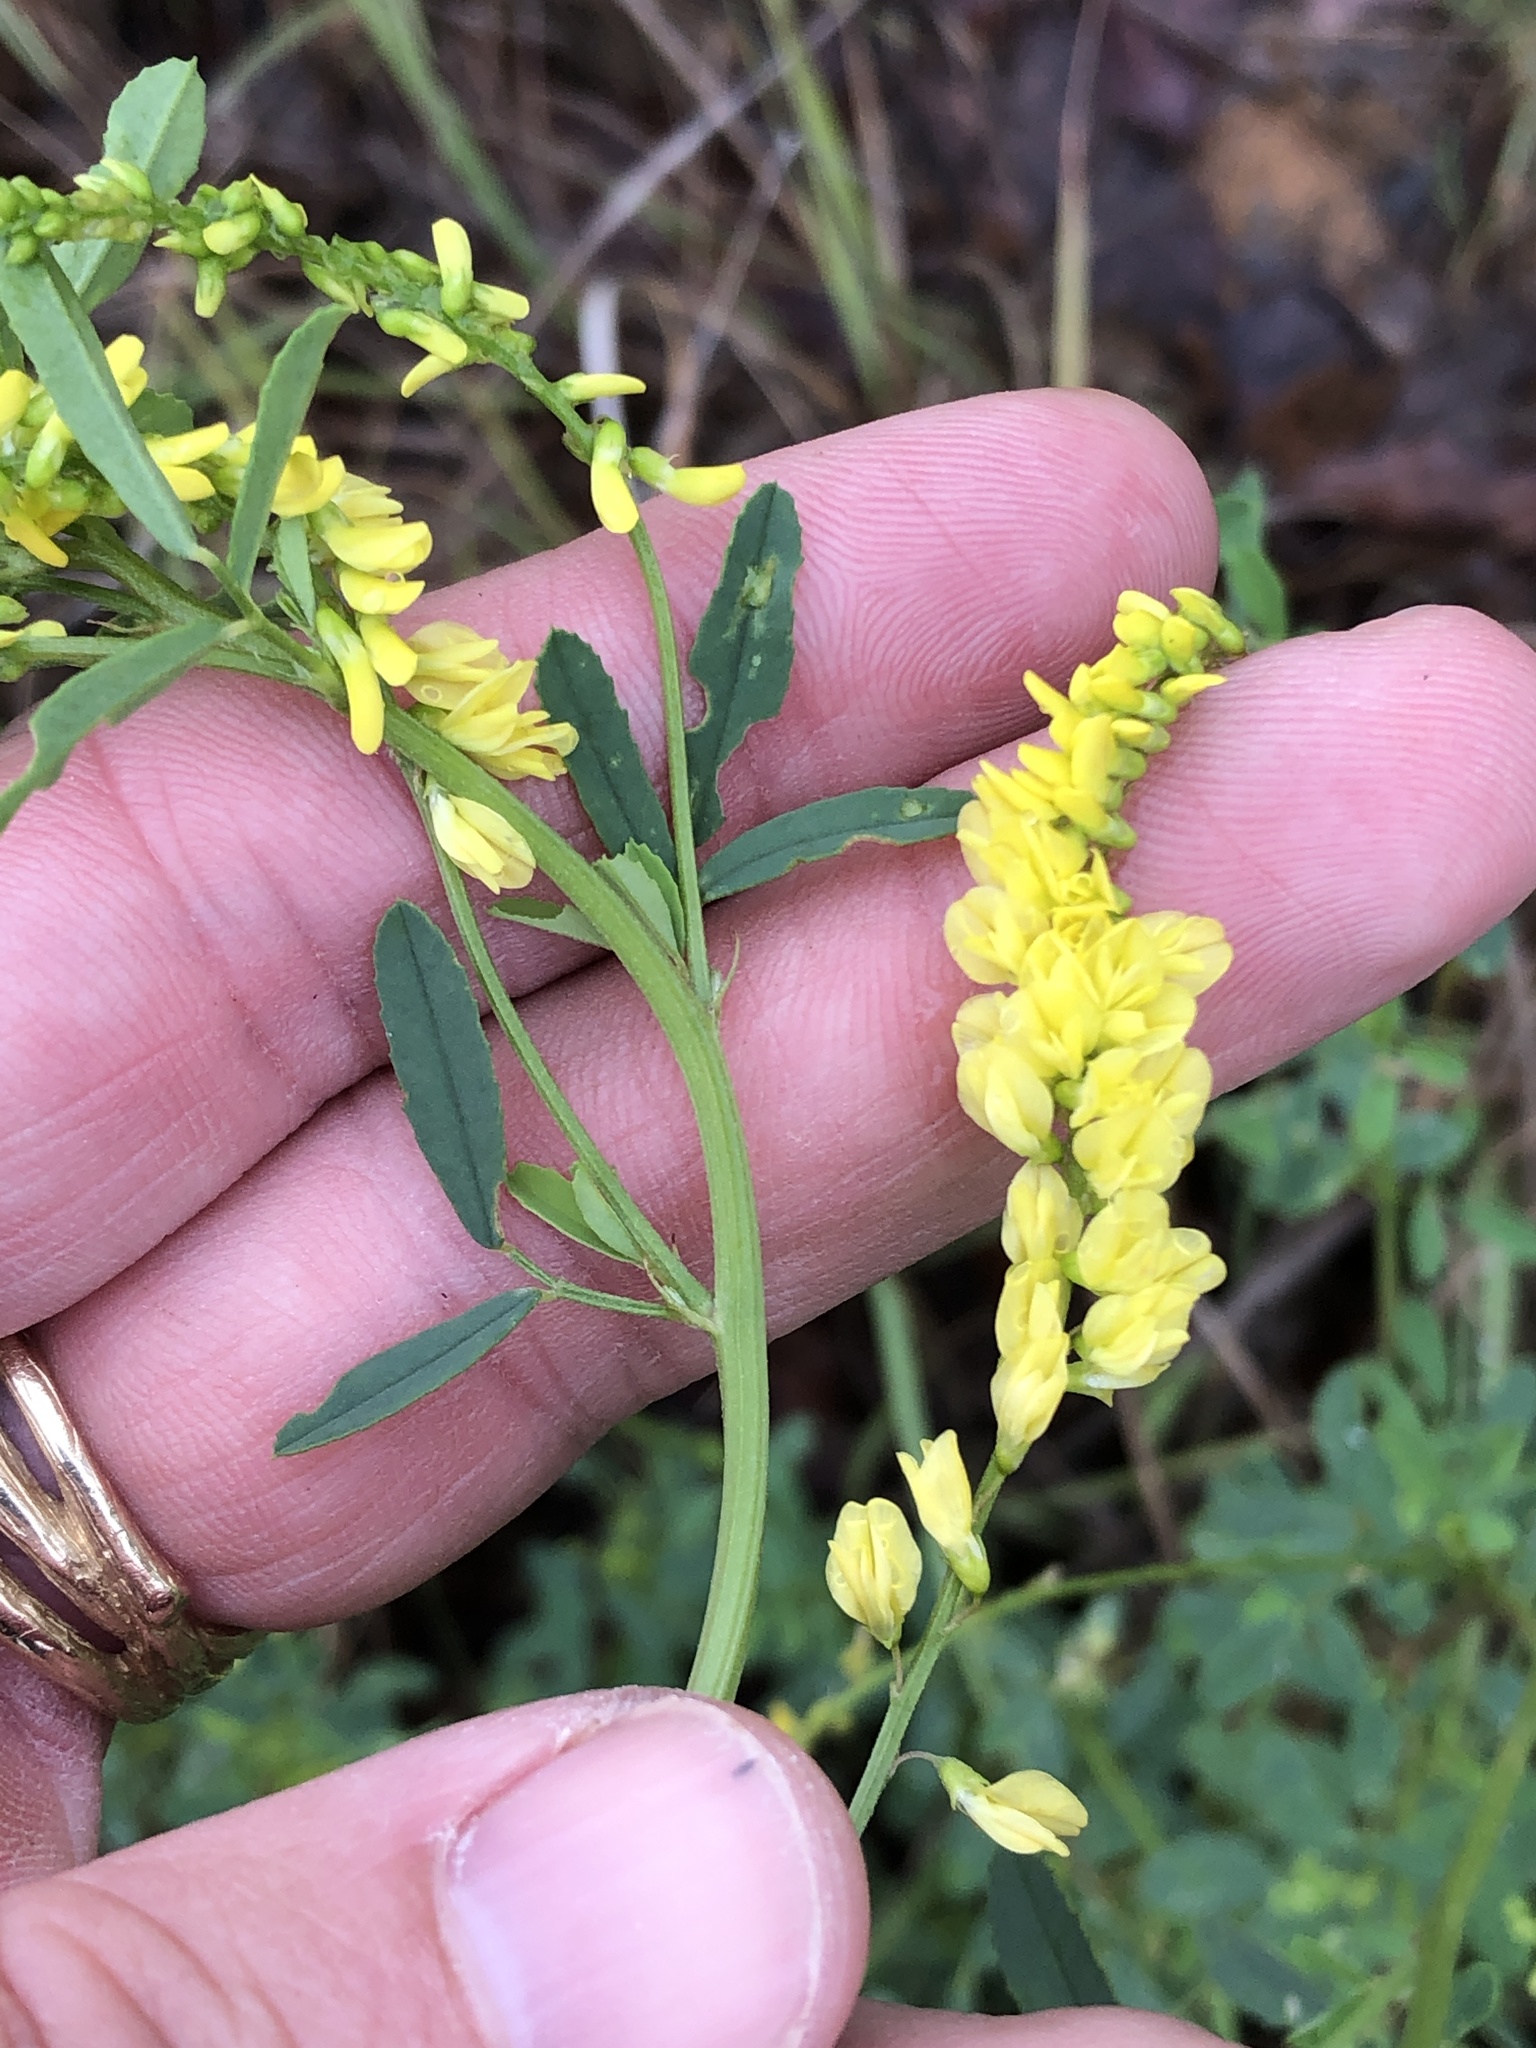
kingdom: Plantae
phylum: Tracheophyta
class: Magnoliopsida
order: Fabales
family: Fabaceae
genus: Melilotus
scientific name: Melilotus officinalis
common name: Sweetclover
